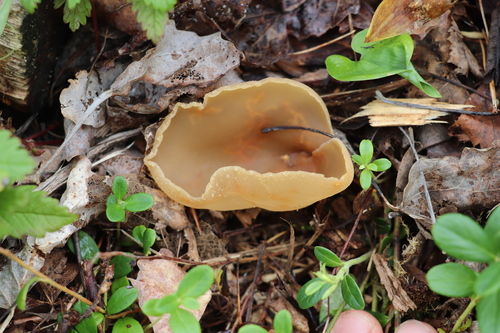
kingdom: Fungi
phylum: Ascomycota
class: Pezizomycetes
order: Pezizales
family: Pezizaceae
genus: Peziza
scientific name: Peziza varia
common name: Layered cup
